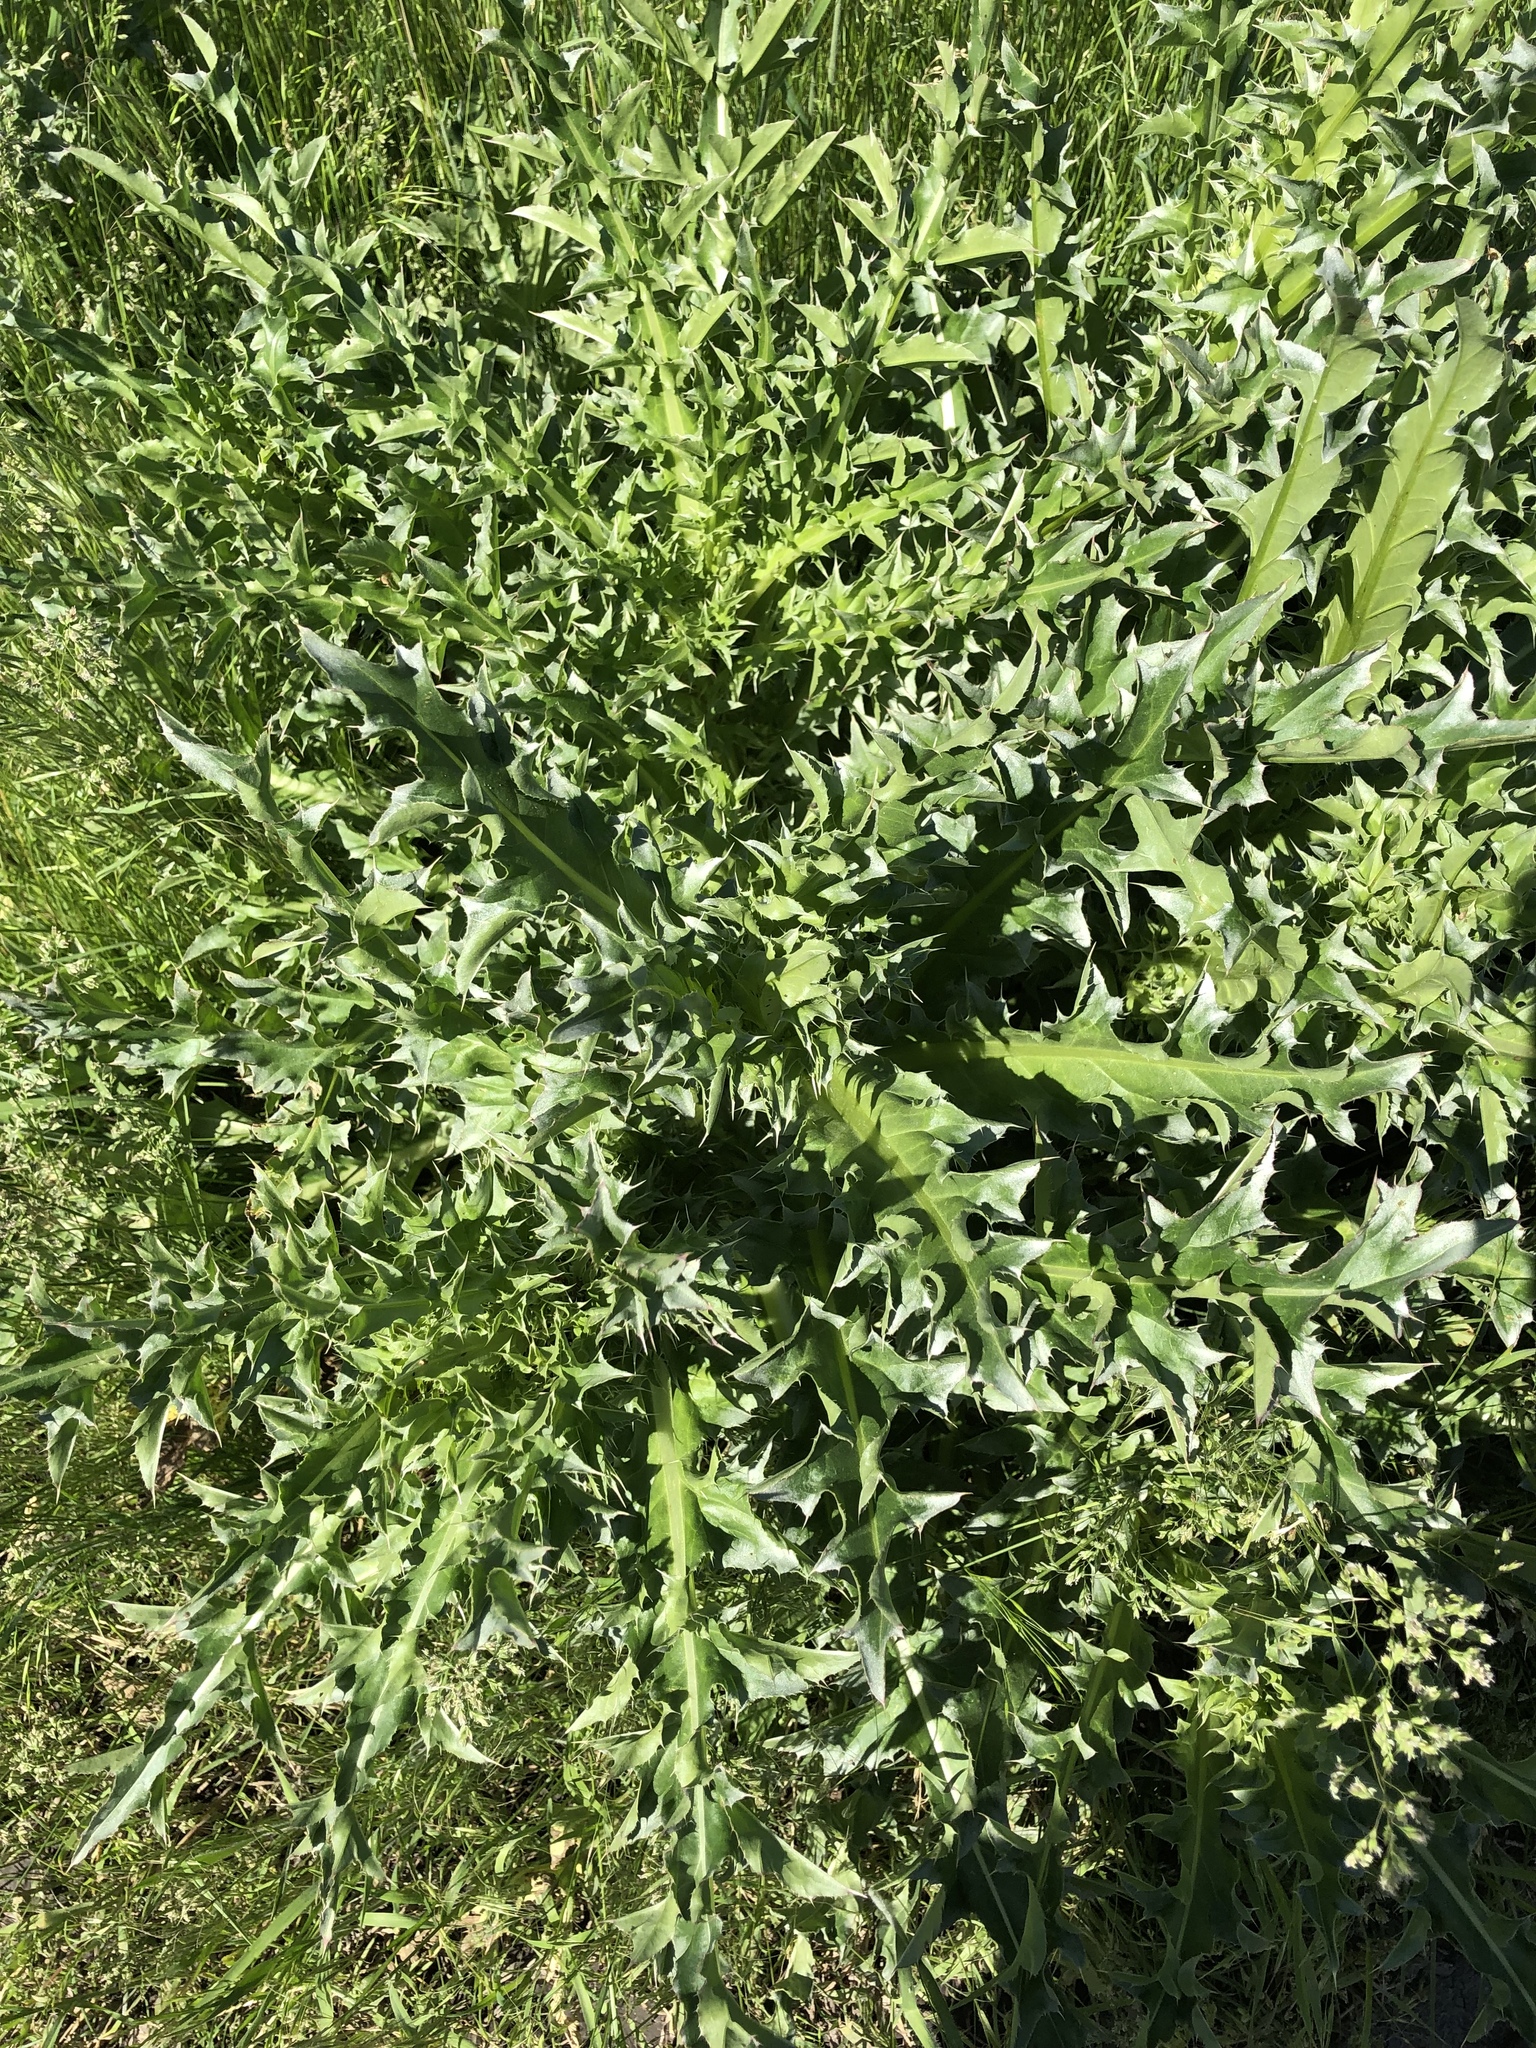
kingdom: Plantae
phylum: Tracheophyta
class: Magnoliopsida
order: Asterales
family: Asteraceae
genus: Carduus
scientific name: Carduus nutans
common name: Musk thistle
